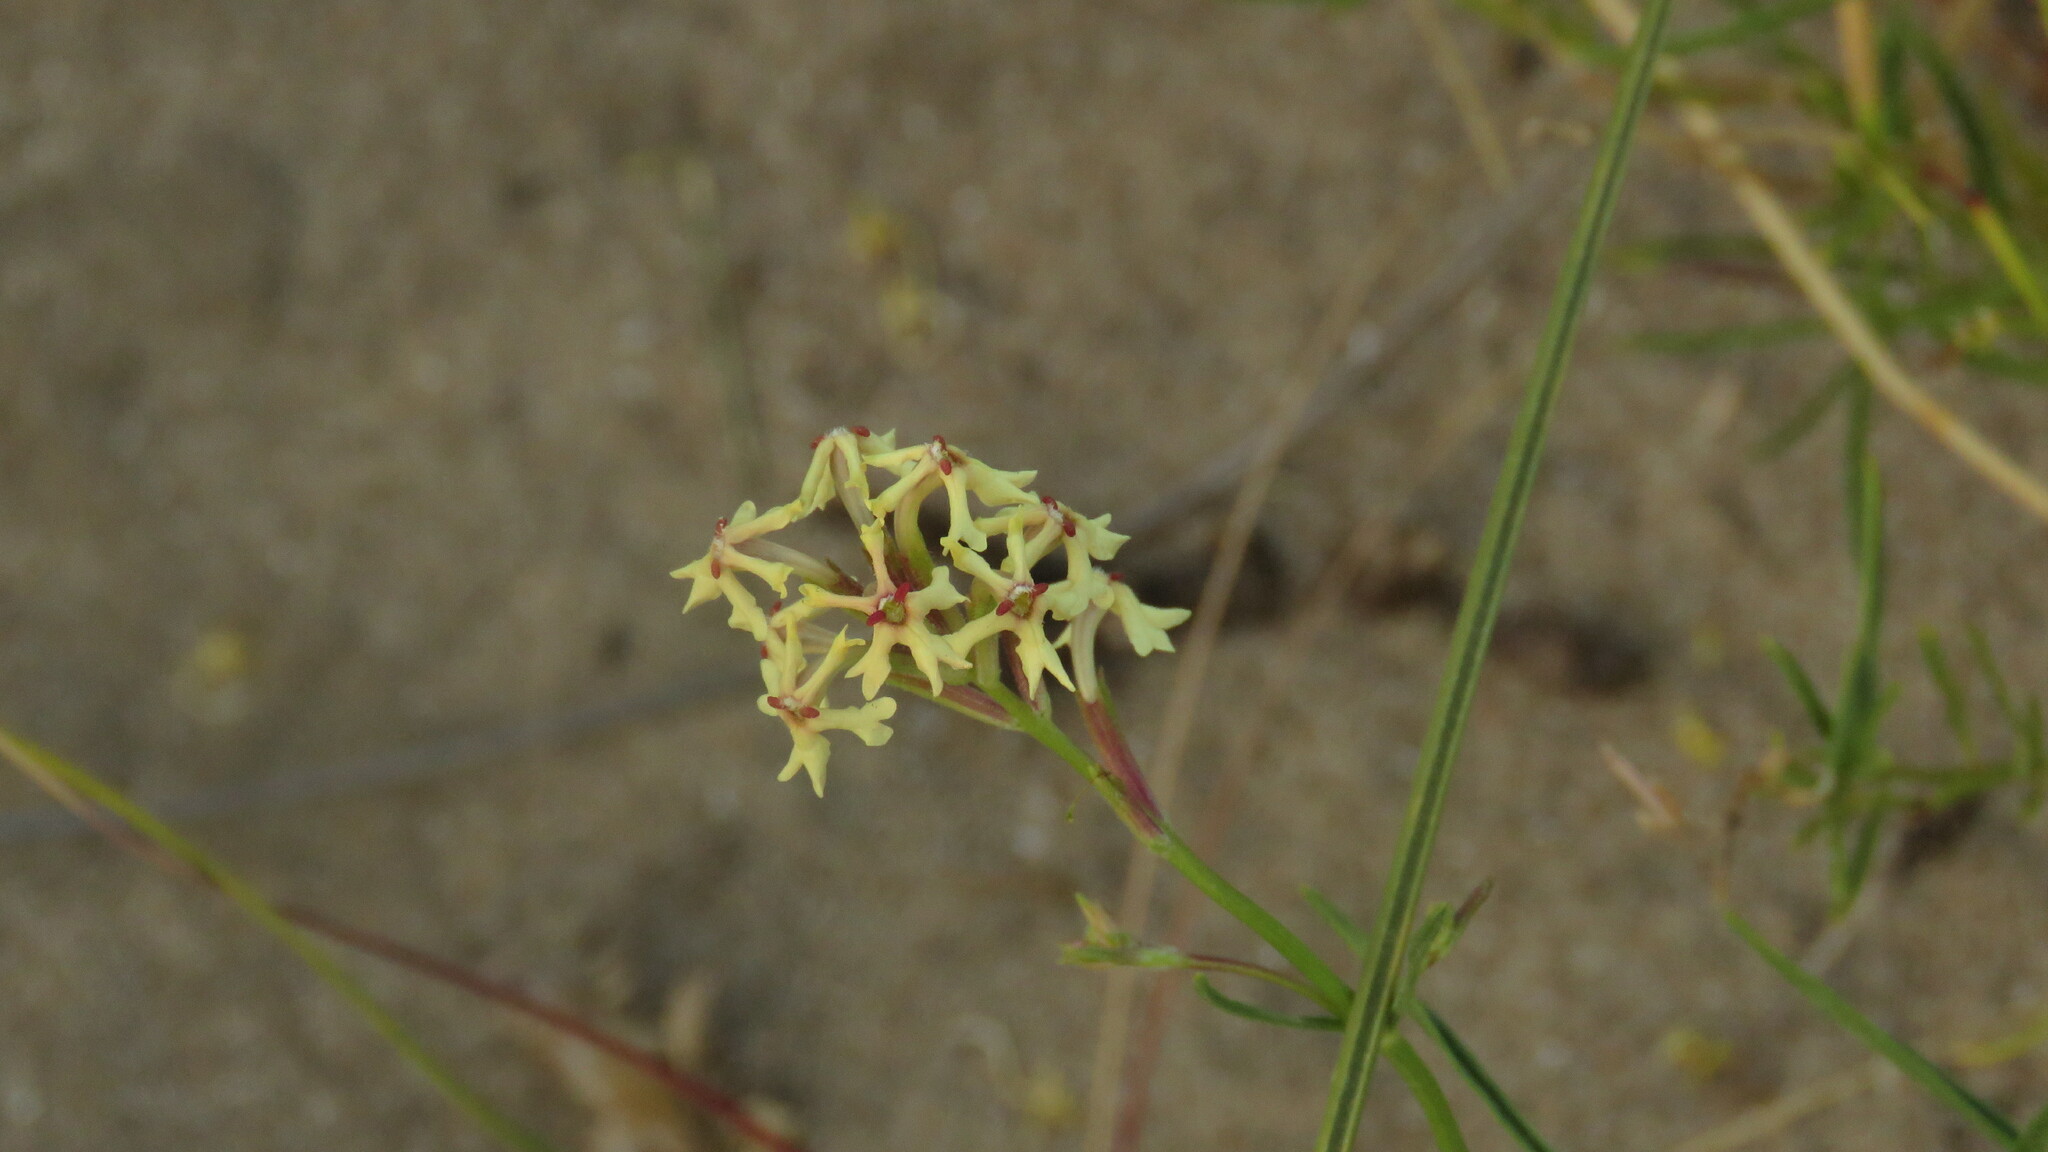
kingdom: Plantae
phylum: Tracheophyta
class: Magnoliopsida
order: Lamiales
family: Verbenaceae
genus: Verbena
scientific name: Verbena flava
